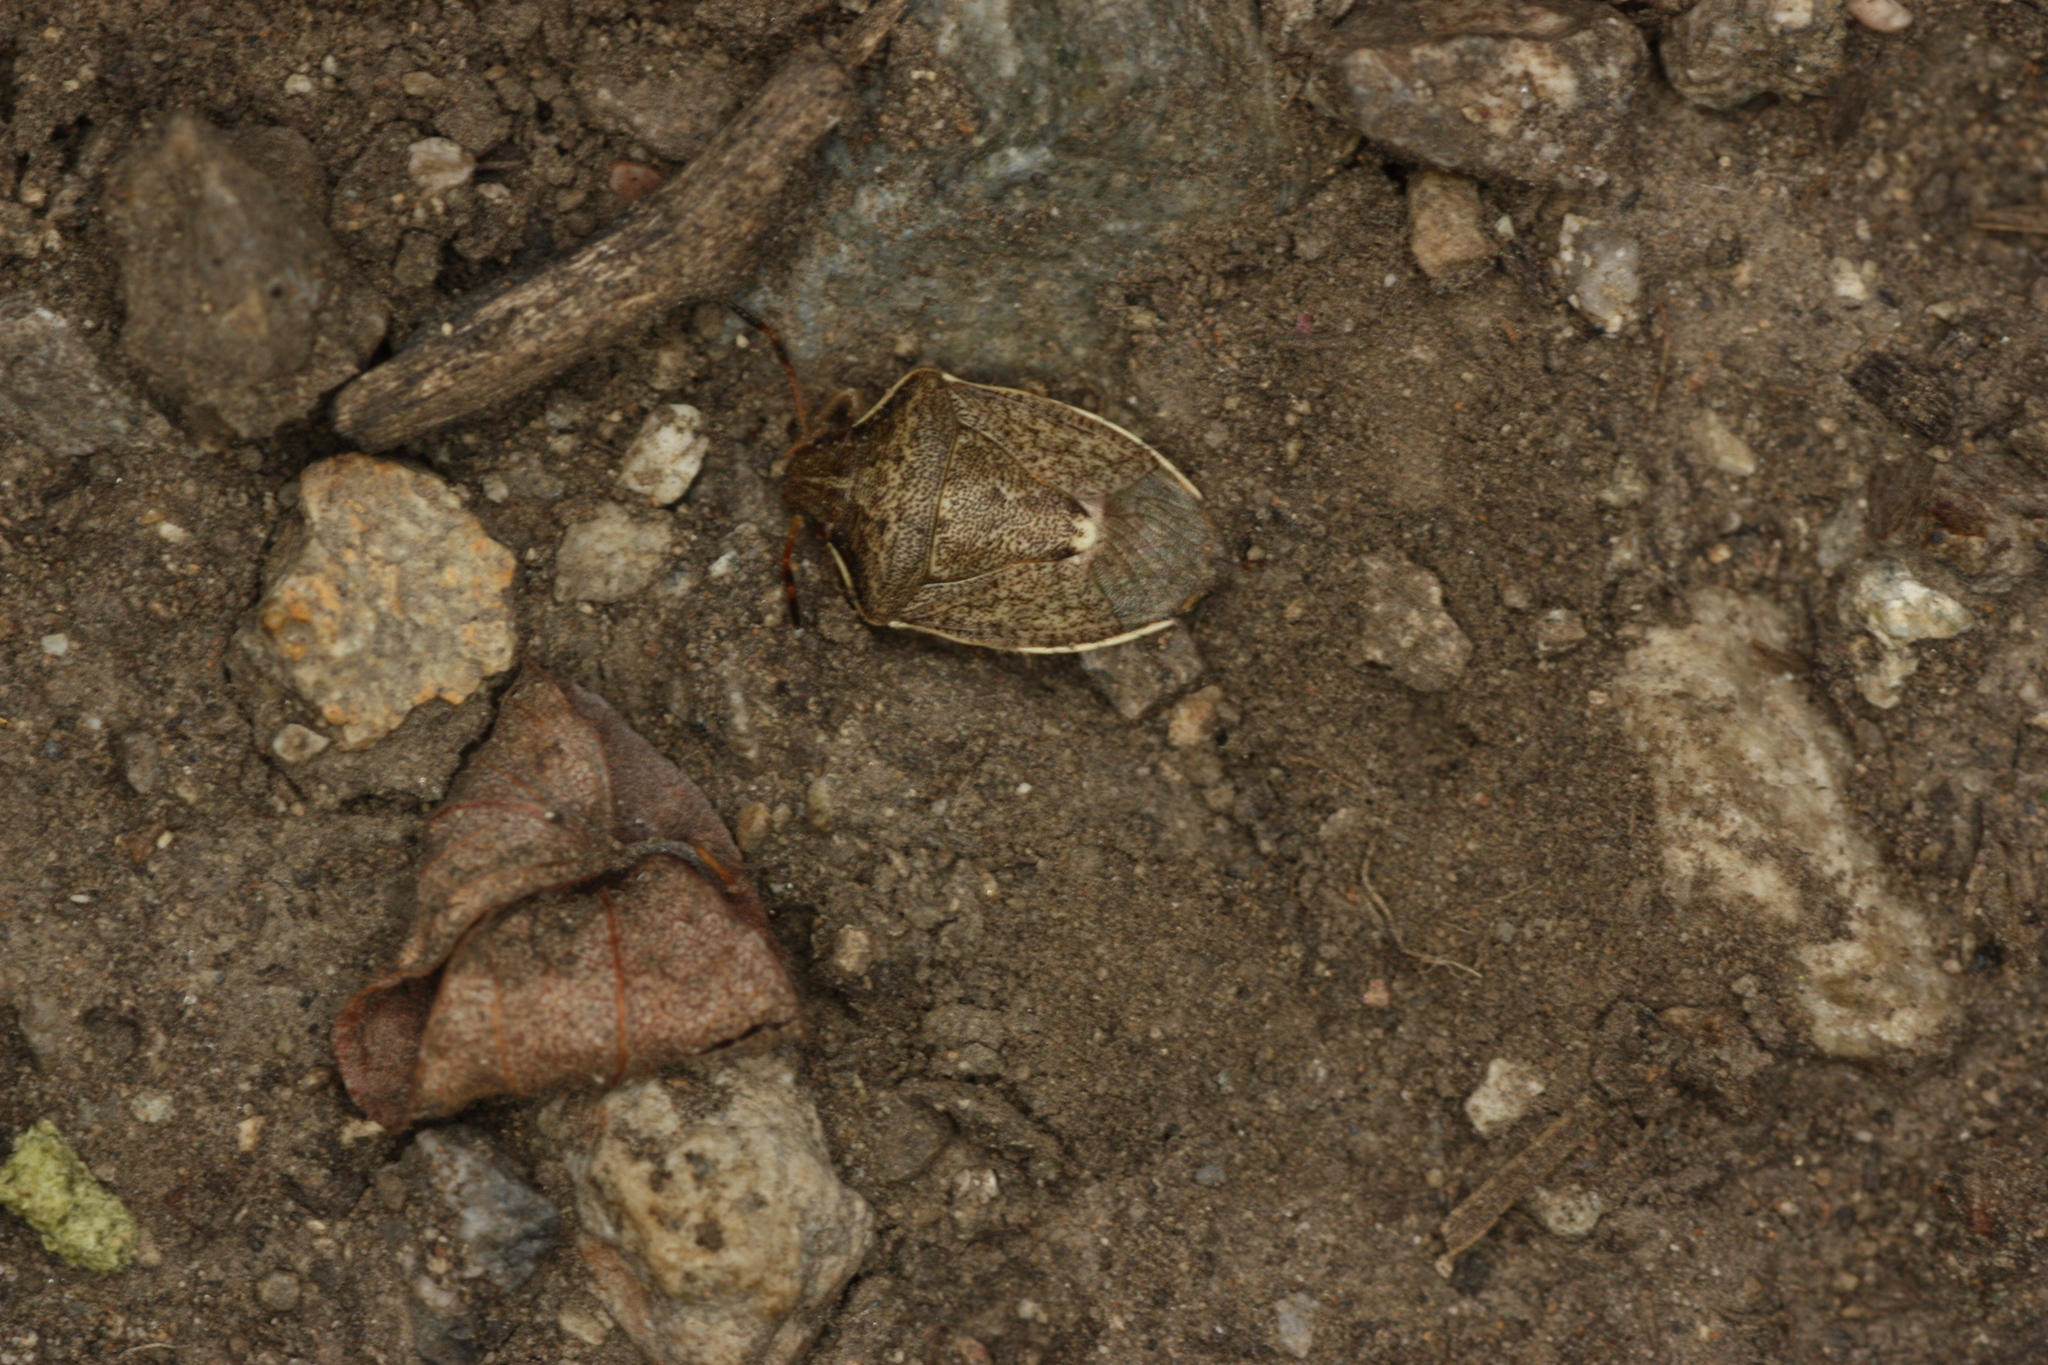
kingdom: Animalia
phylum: Arthropoda
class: Insecta
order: Hemiptera
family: Pentatomidae
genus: Holcostethus
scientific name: Holcostethus limbolarius
